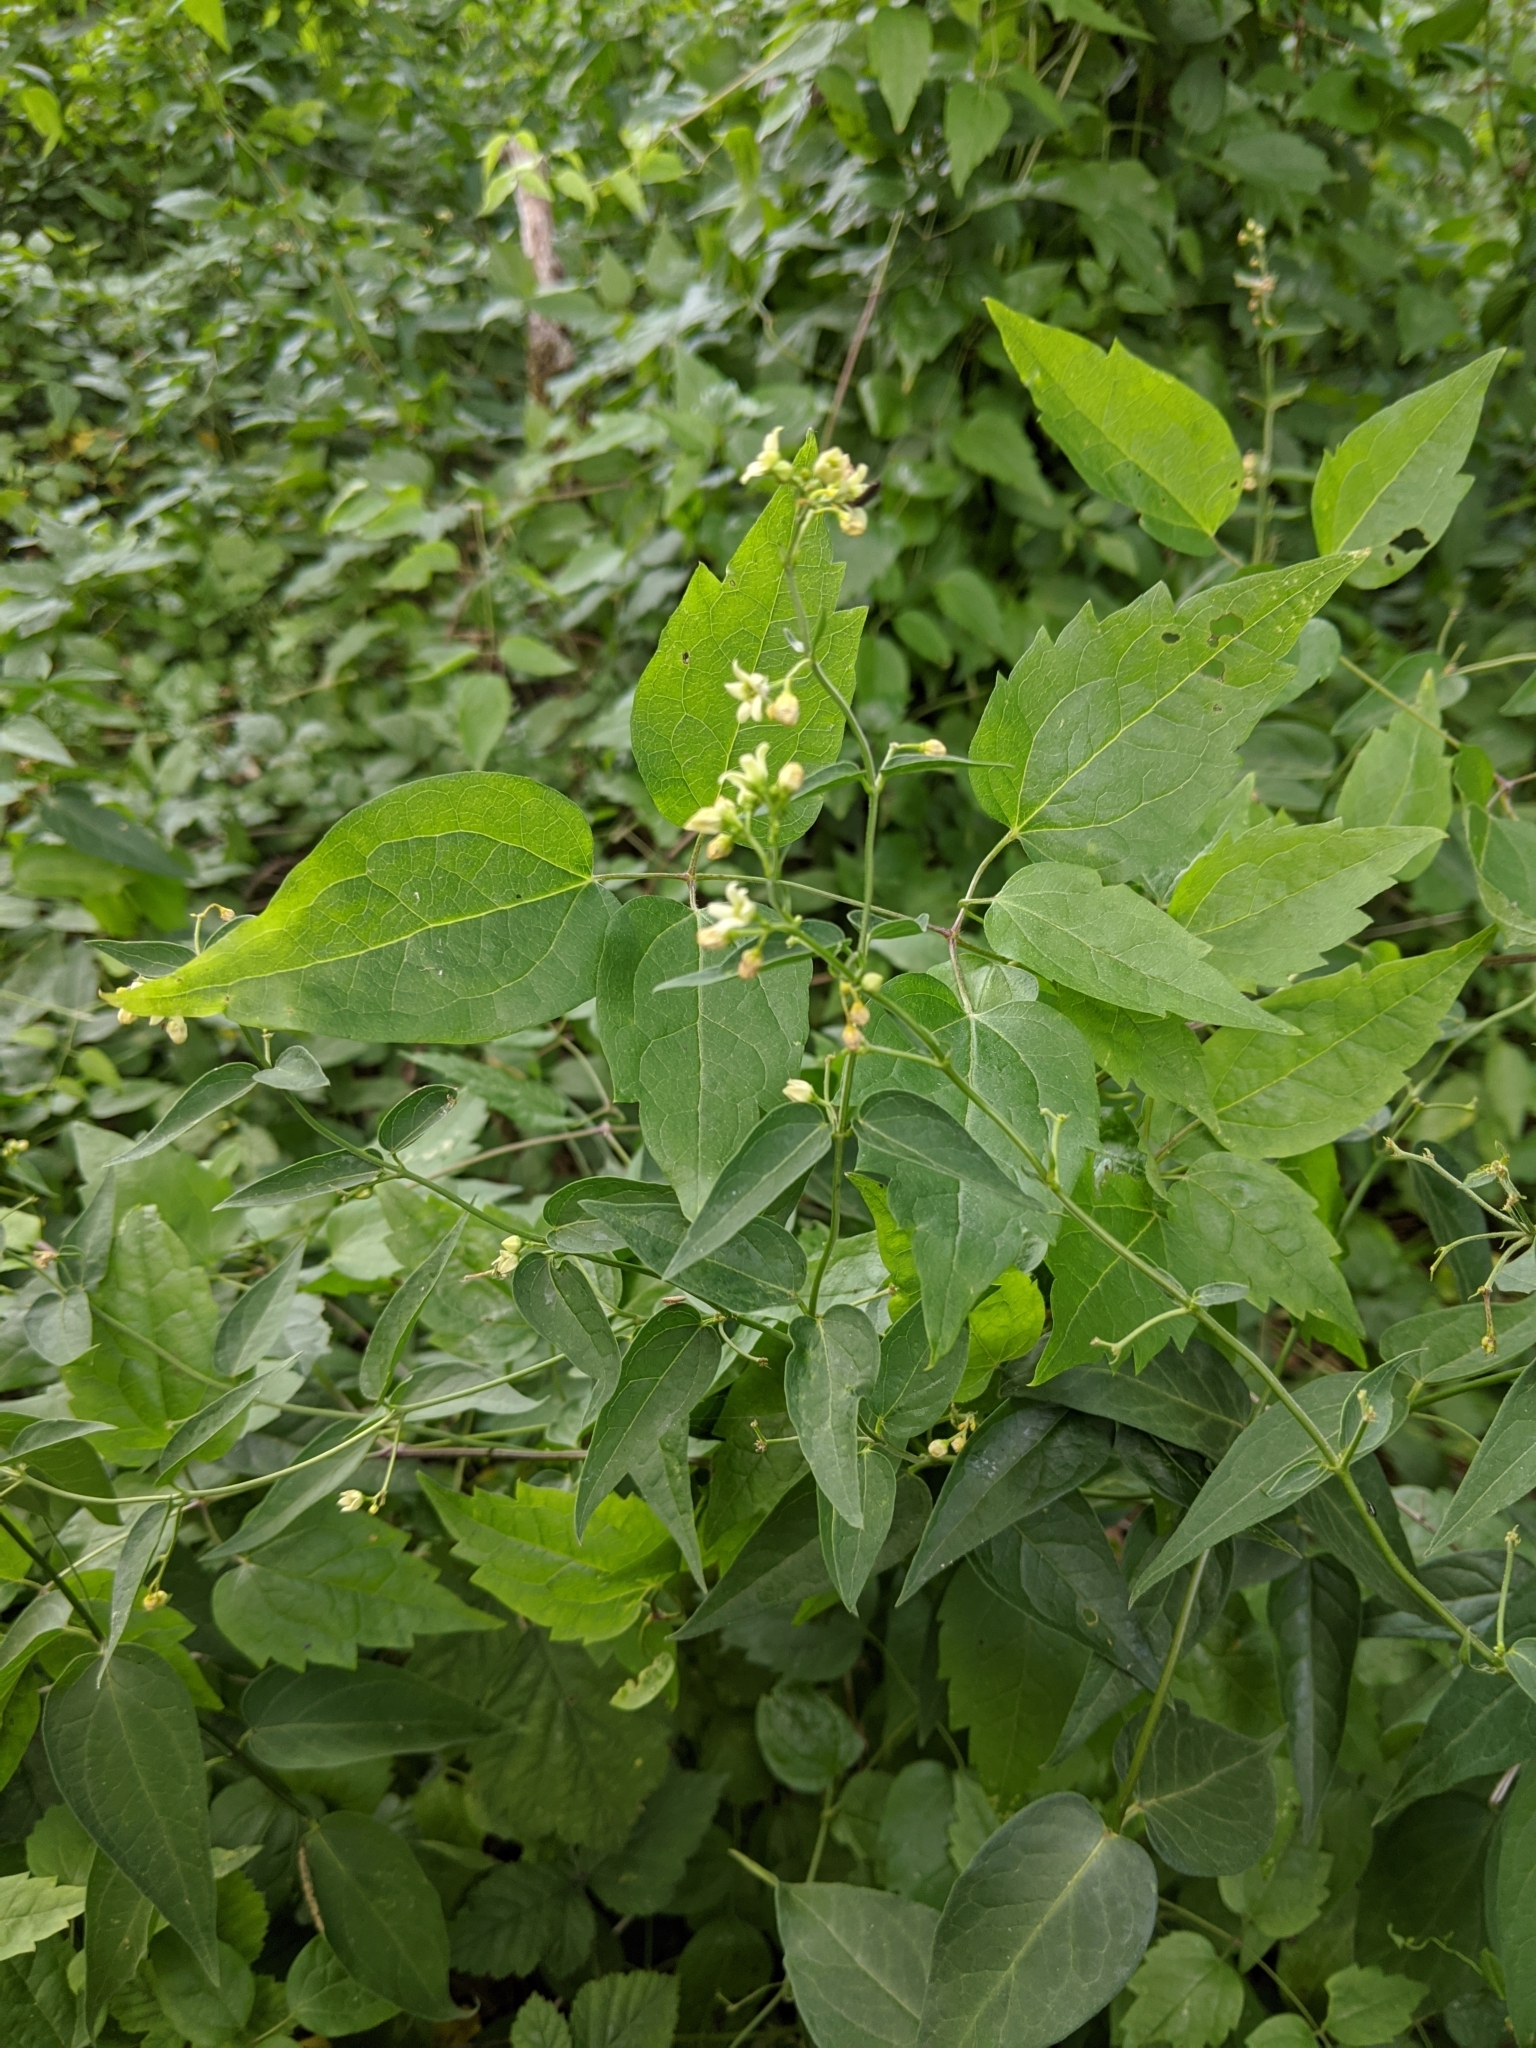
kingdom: Plantae
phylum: Tracheophyta
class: Magnoliopsida
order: Gentianales
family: Apocynaceae
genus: Vincetoxicum
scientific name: Vincetoxicum hirundinaria
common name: White swallowwort
